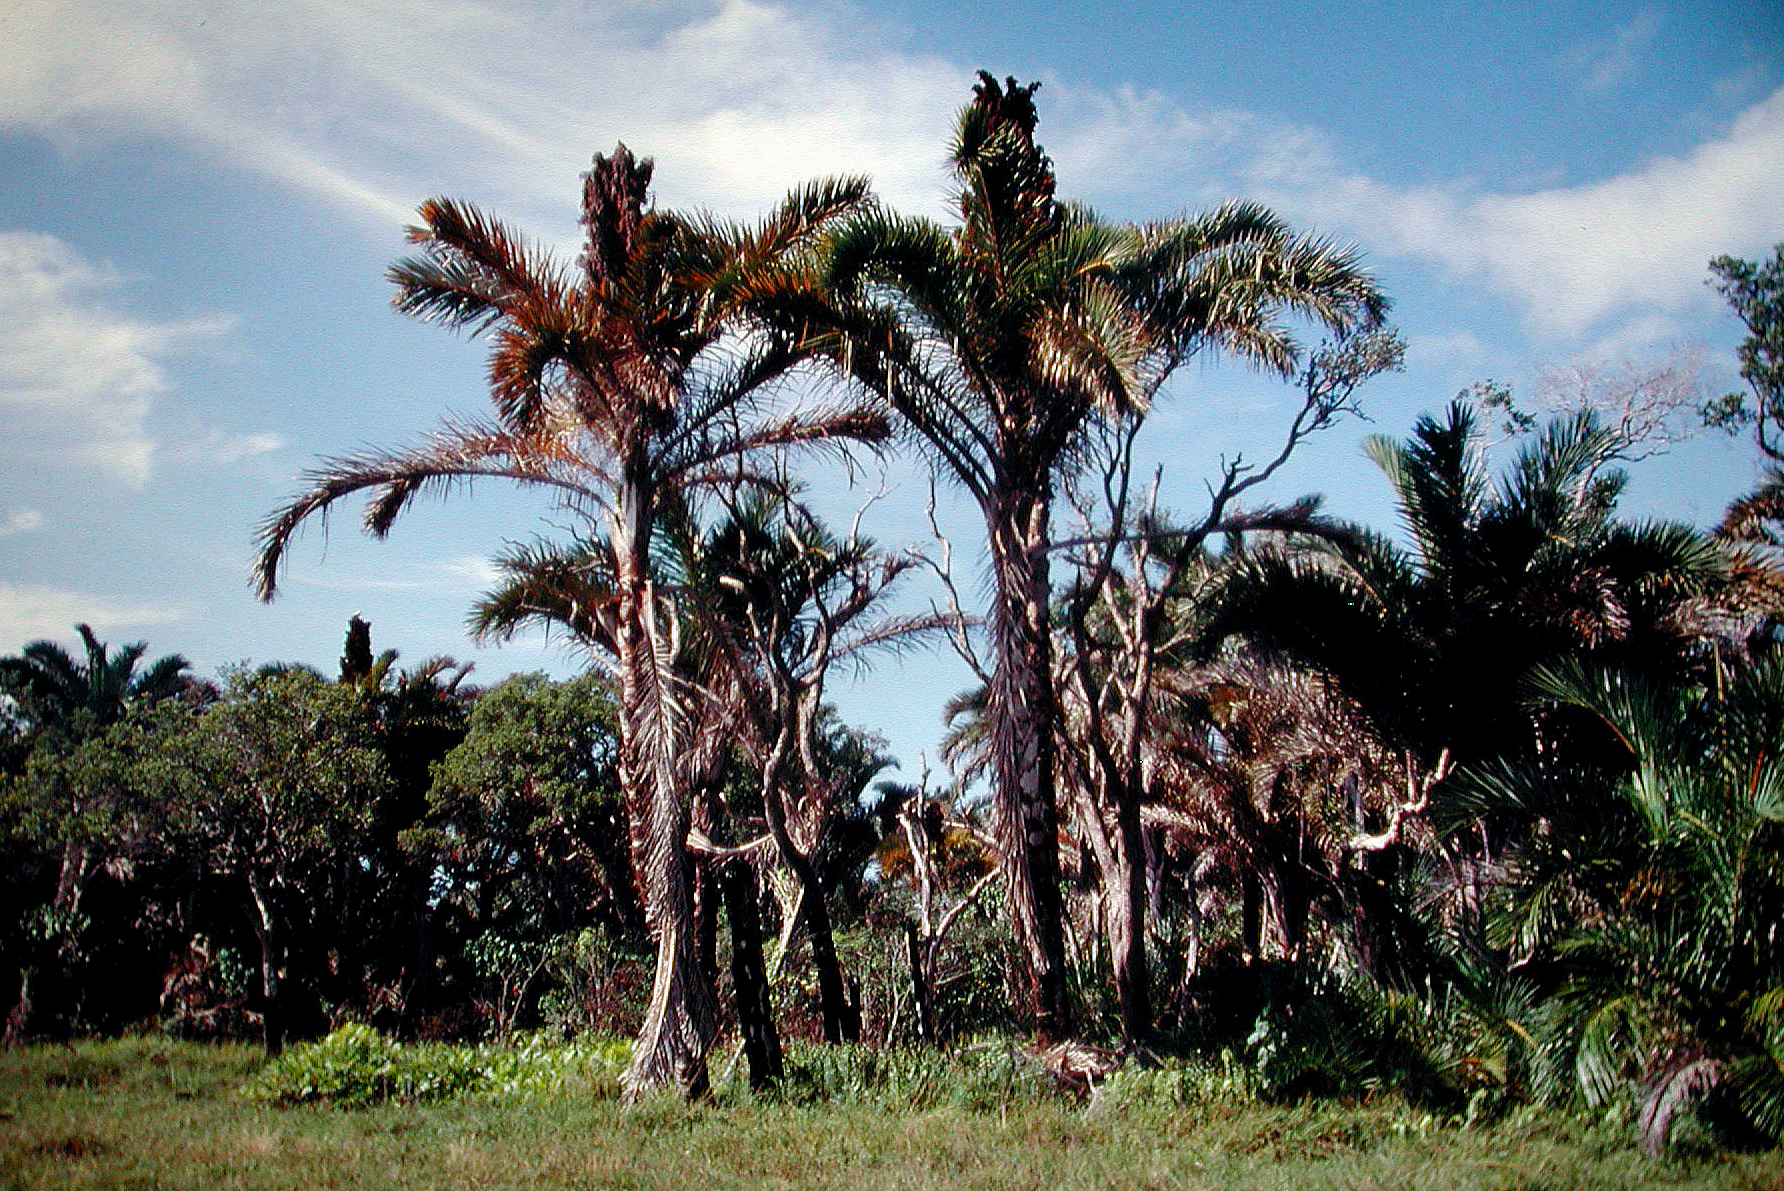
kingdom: Plantae
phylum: Tracheophyta
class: Liliopsida
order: Arecales
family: Arecaceae
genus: Raphia
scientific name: Raphia australis
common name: Giant palm
